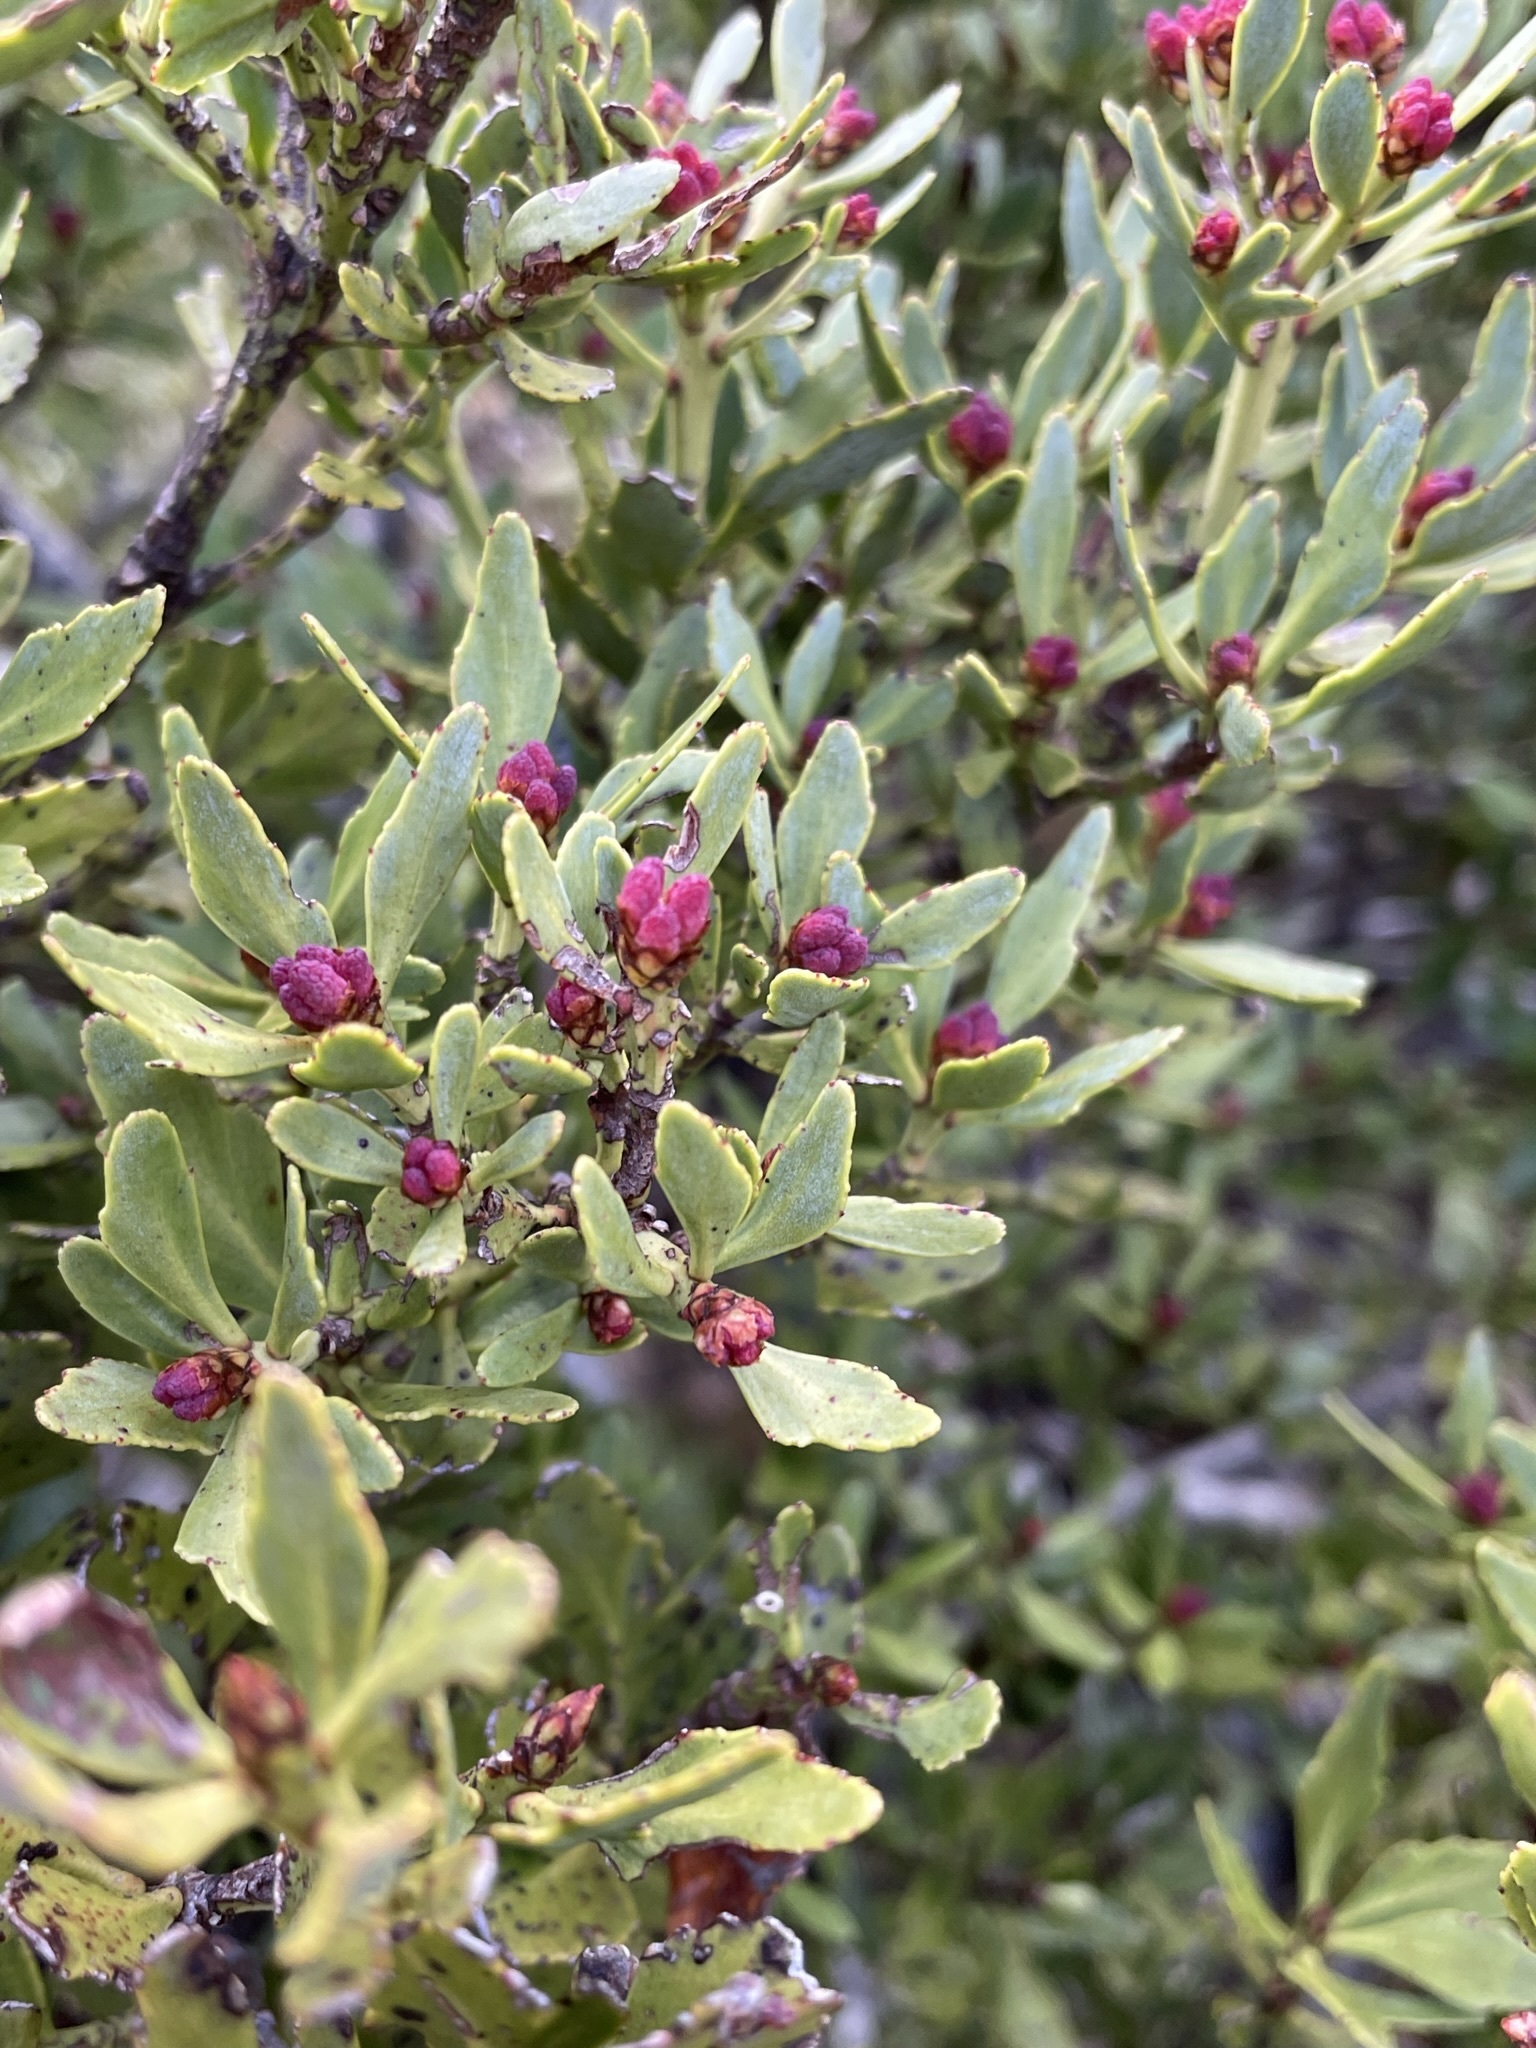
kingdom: Plantae
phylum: Tracheophyta
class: Pinopsida
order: Pinales
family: Phyllocladaceae
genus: Phyllocladus
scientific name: Phyllocladus trichomanoides
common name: Celery pine
